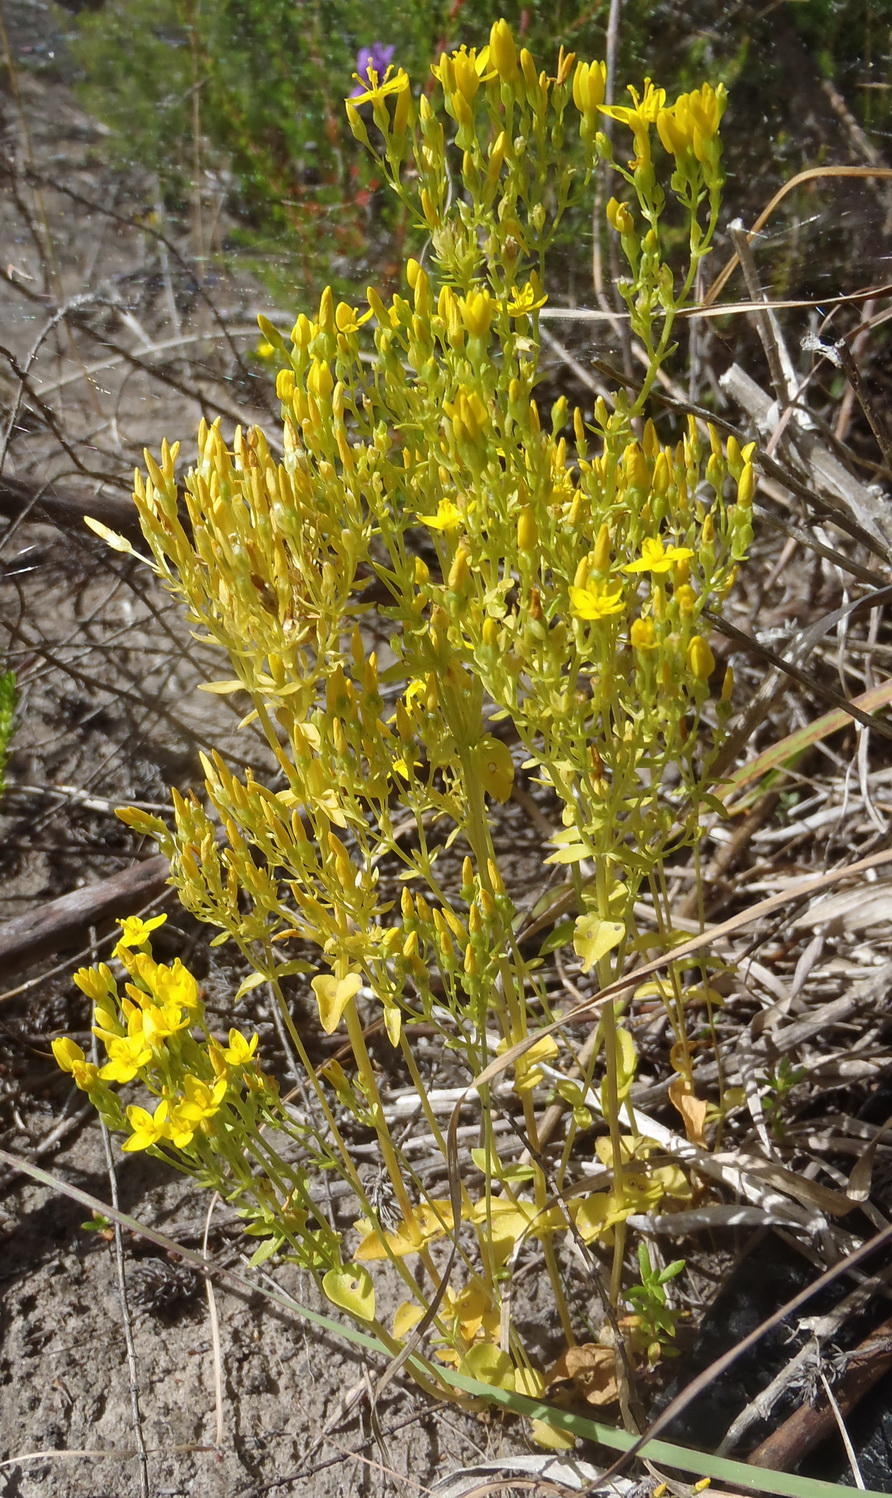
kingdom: Plantae
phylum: Tracheophyta
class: Magnoliopsida
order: Gentianales
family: Gentianaceae
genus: Sebaea
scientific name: Sebaea aurea
